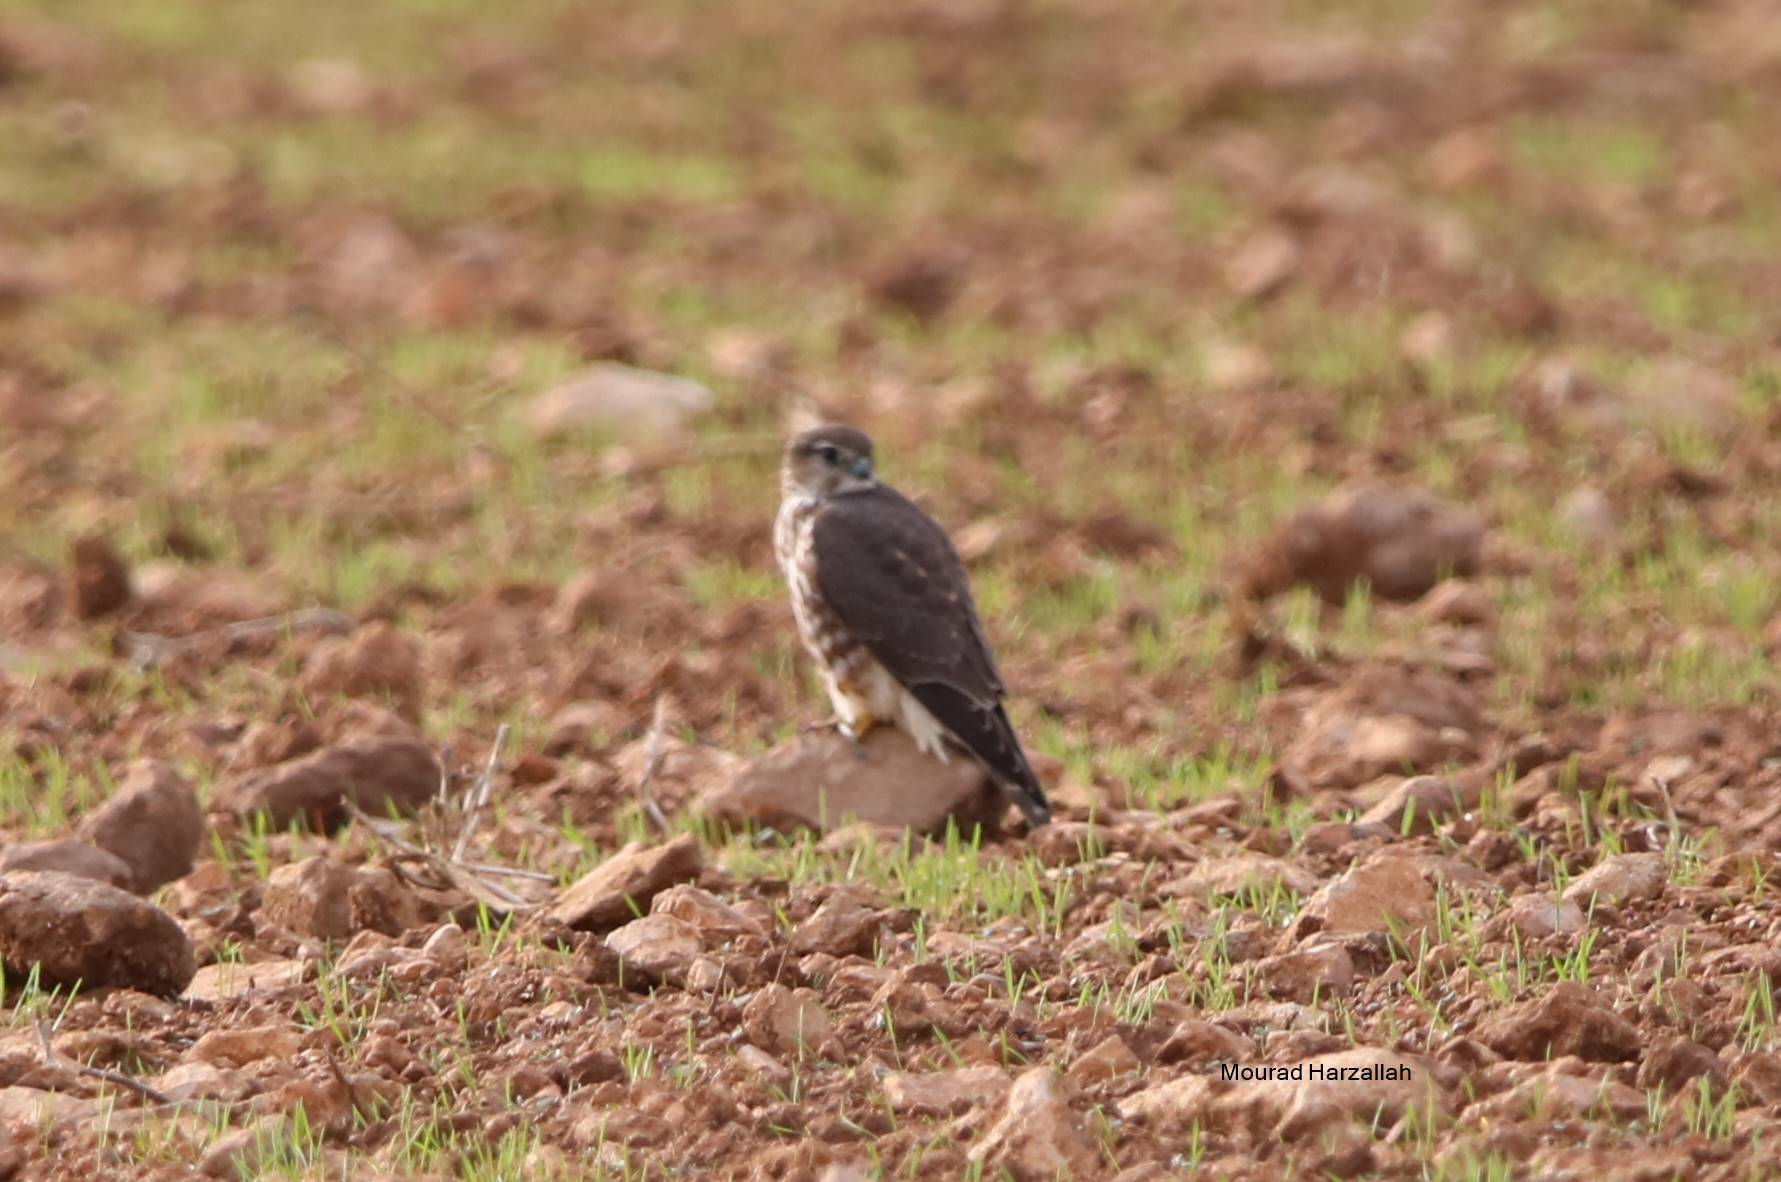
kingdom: Animalia
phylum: Chordata
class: Aves
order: Falconiformes
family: Falconidae
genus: Falco
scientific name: Falco columbarius
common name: Merlin
